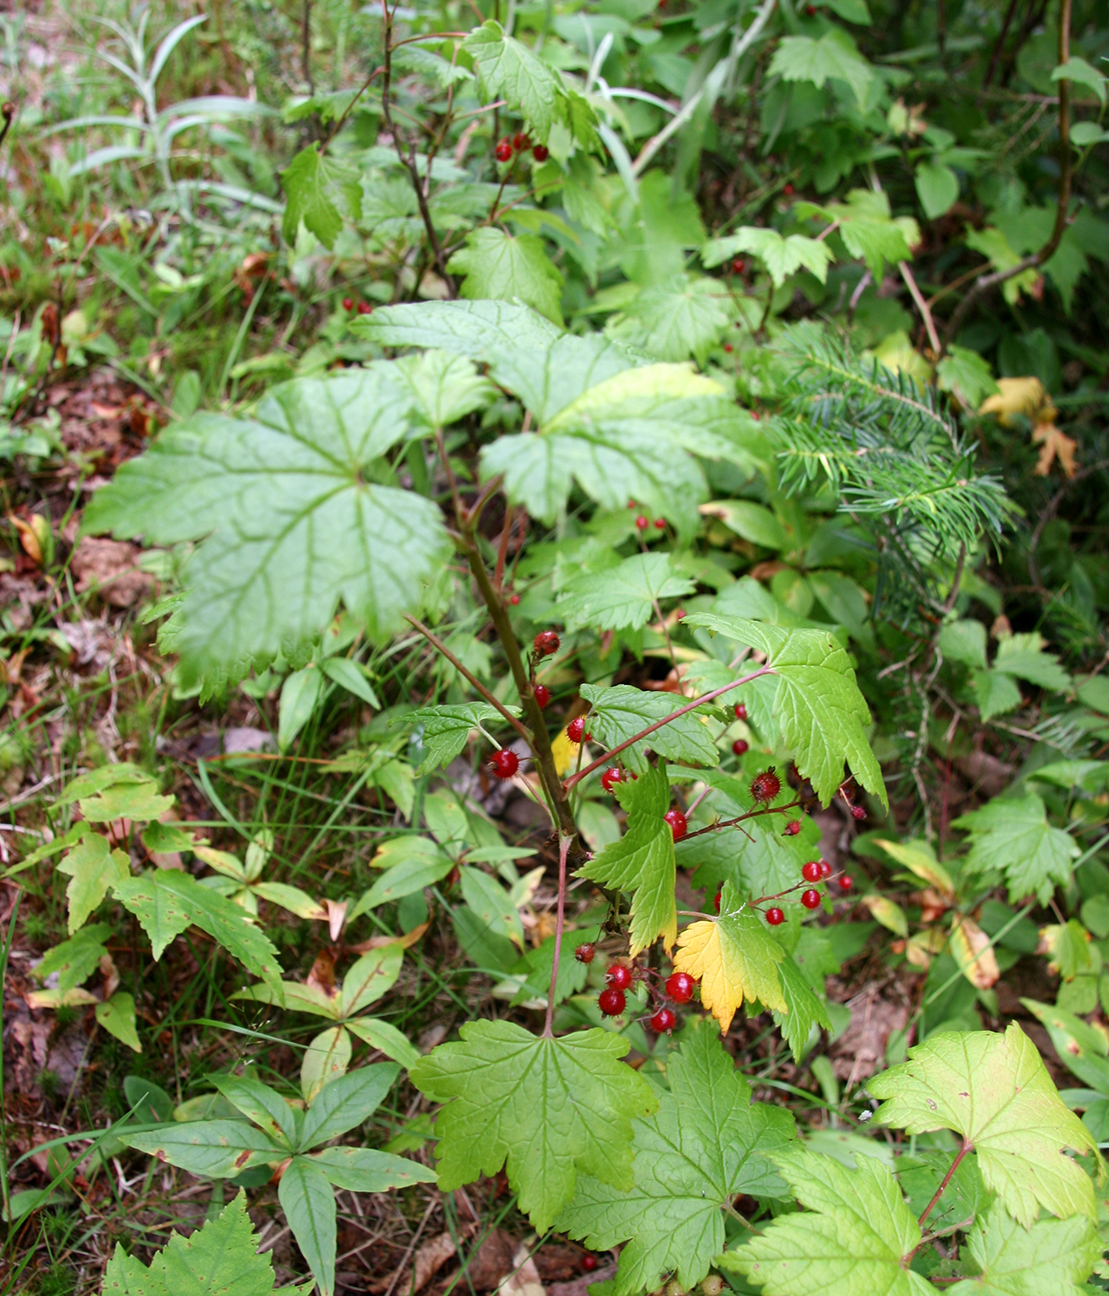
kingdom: Plantae
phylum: Tracheophyta
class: Magnoliopsida
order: Saxifragales
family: Grossulariaceae
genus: Ribes
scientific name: Ribes glandulosum
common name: Skunk currant
